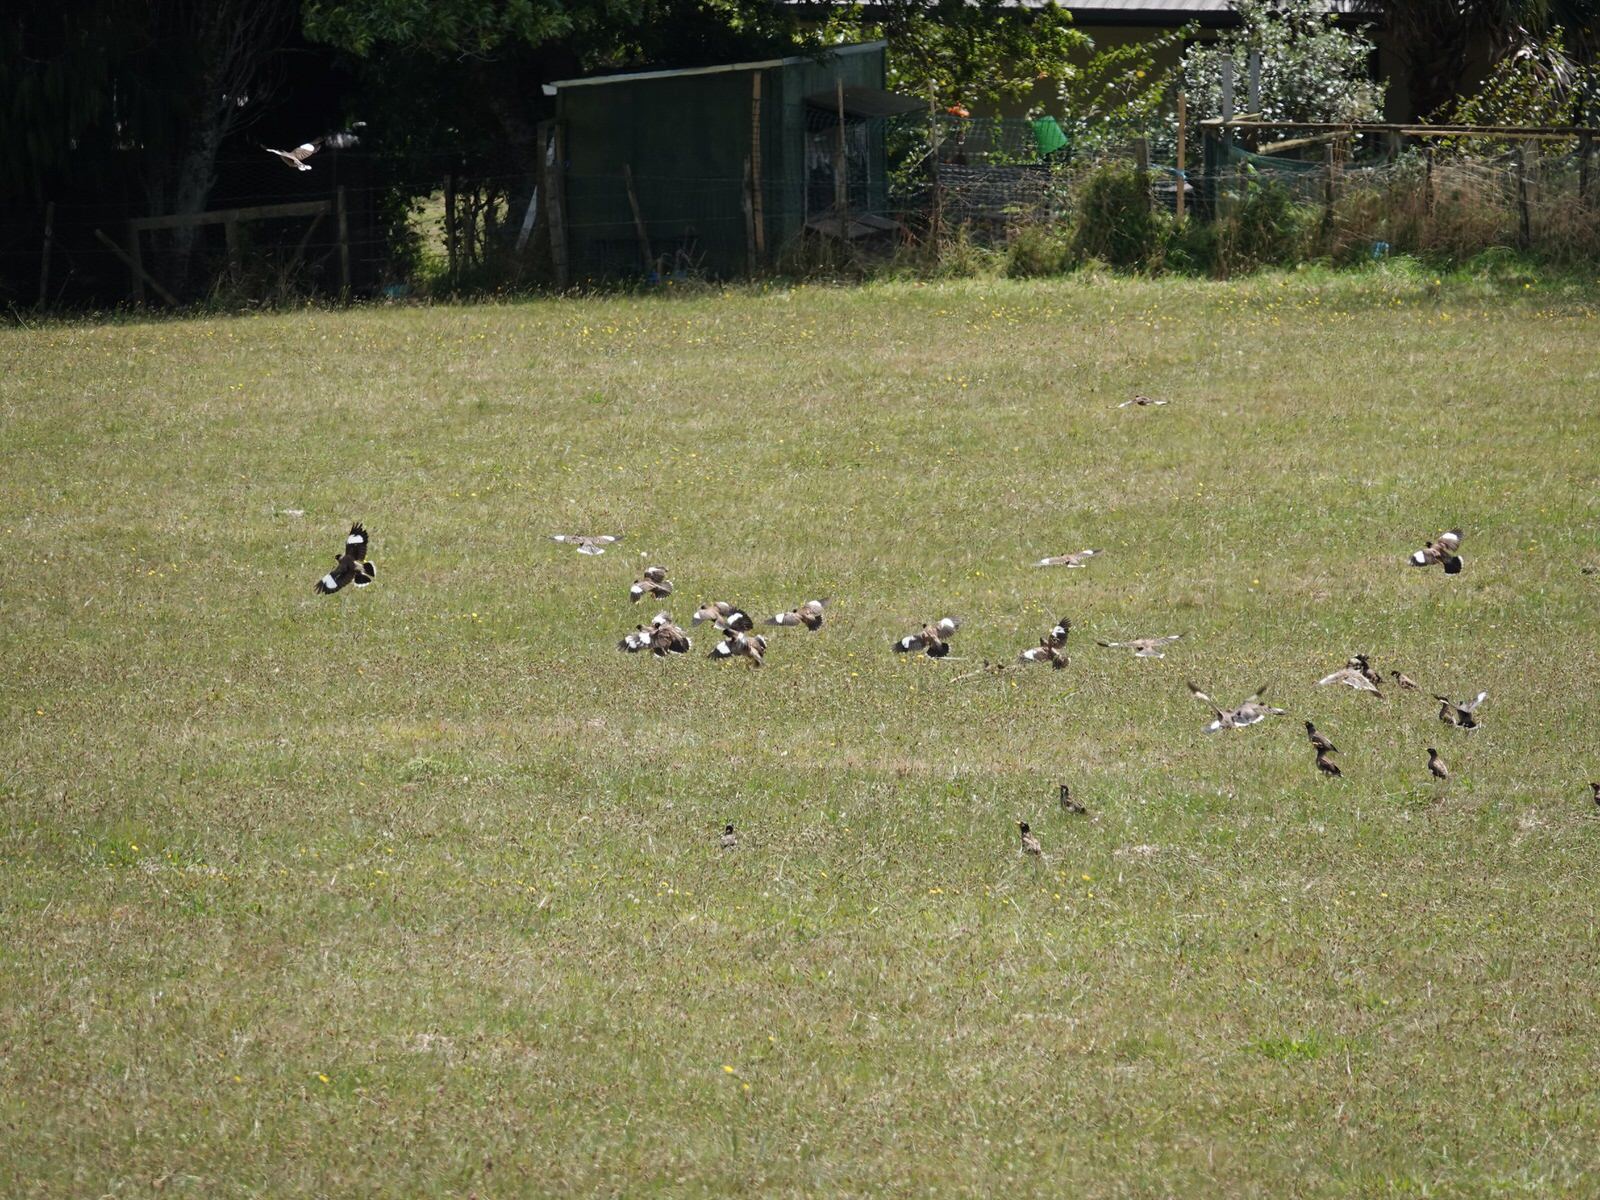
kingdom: Animalia
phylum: Chordata
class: Aves
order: Passeriformes
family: Sturnidae
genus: Acridotheres
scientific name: Acridotheres tristis
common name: Common myna
